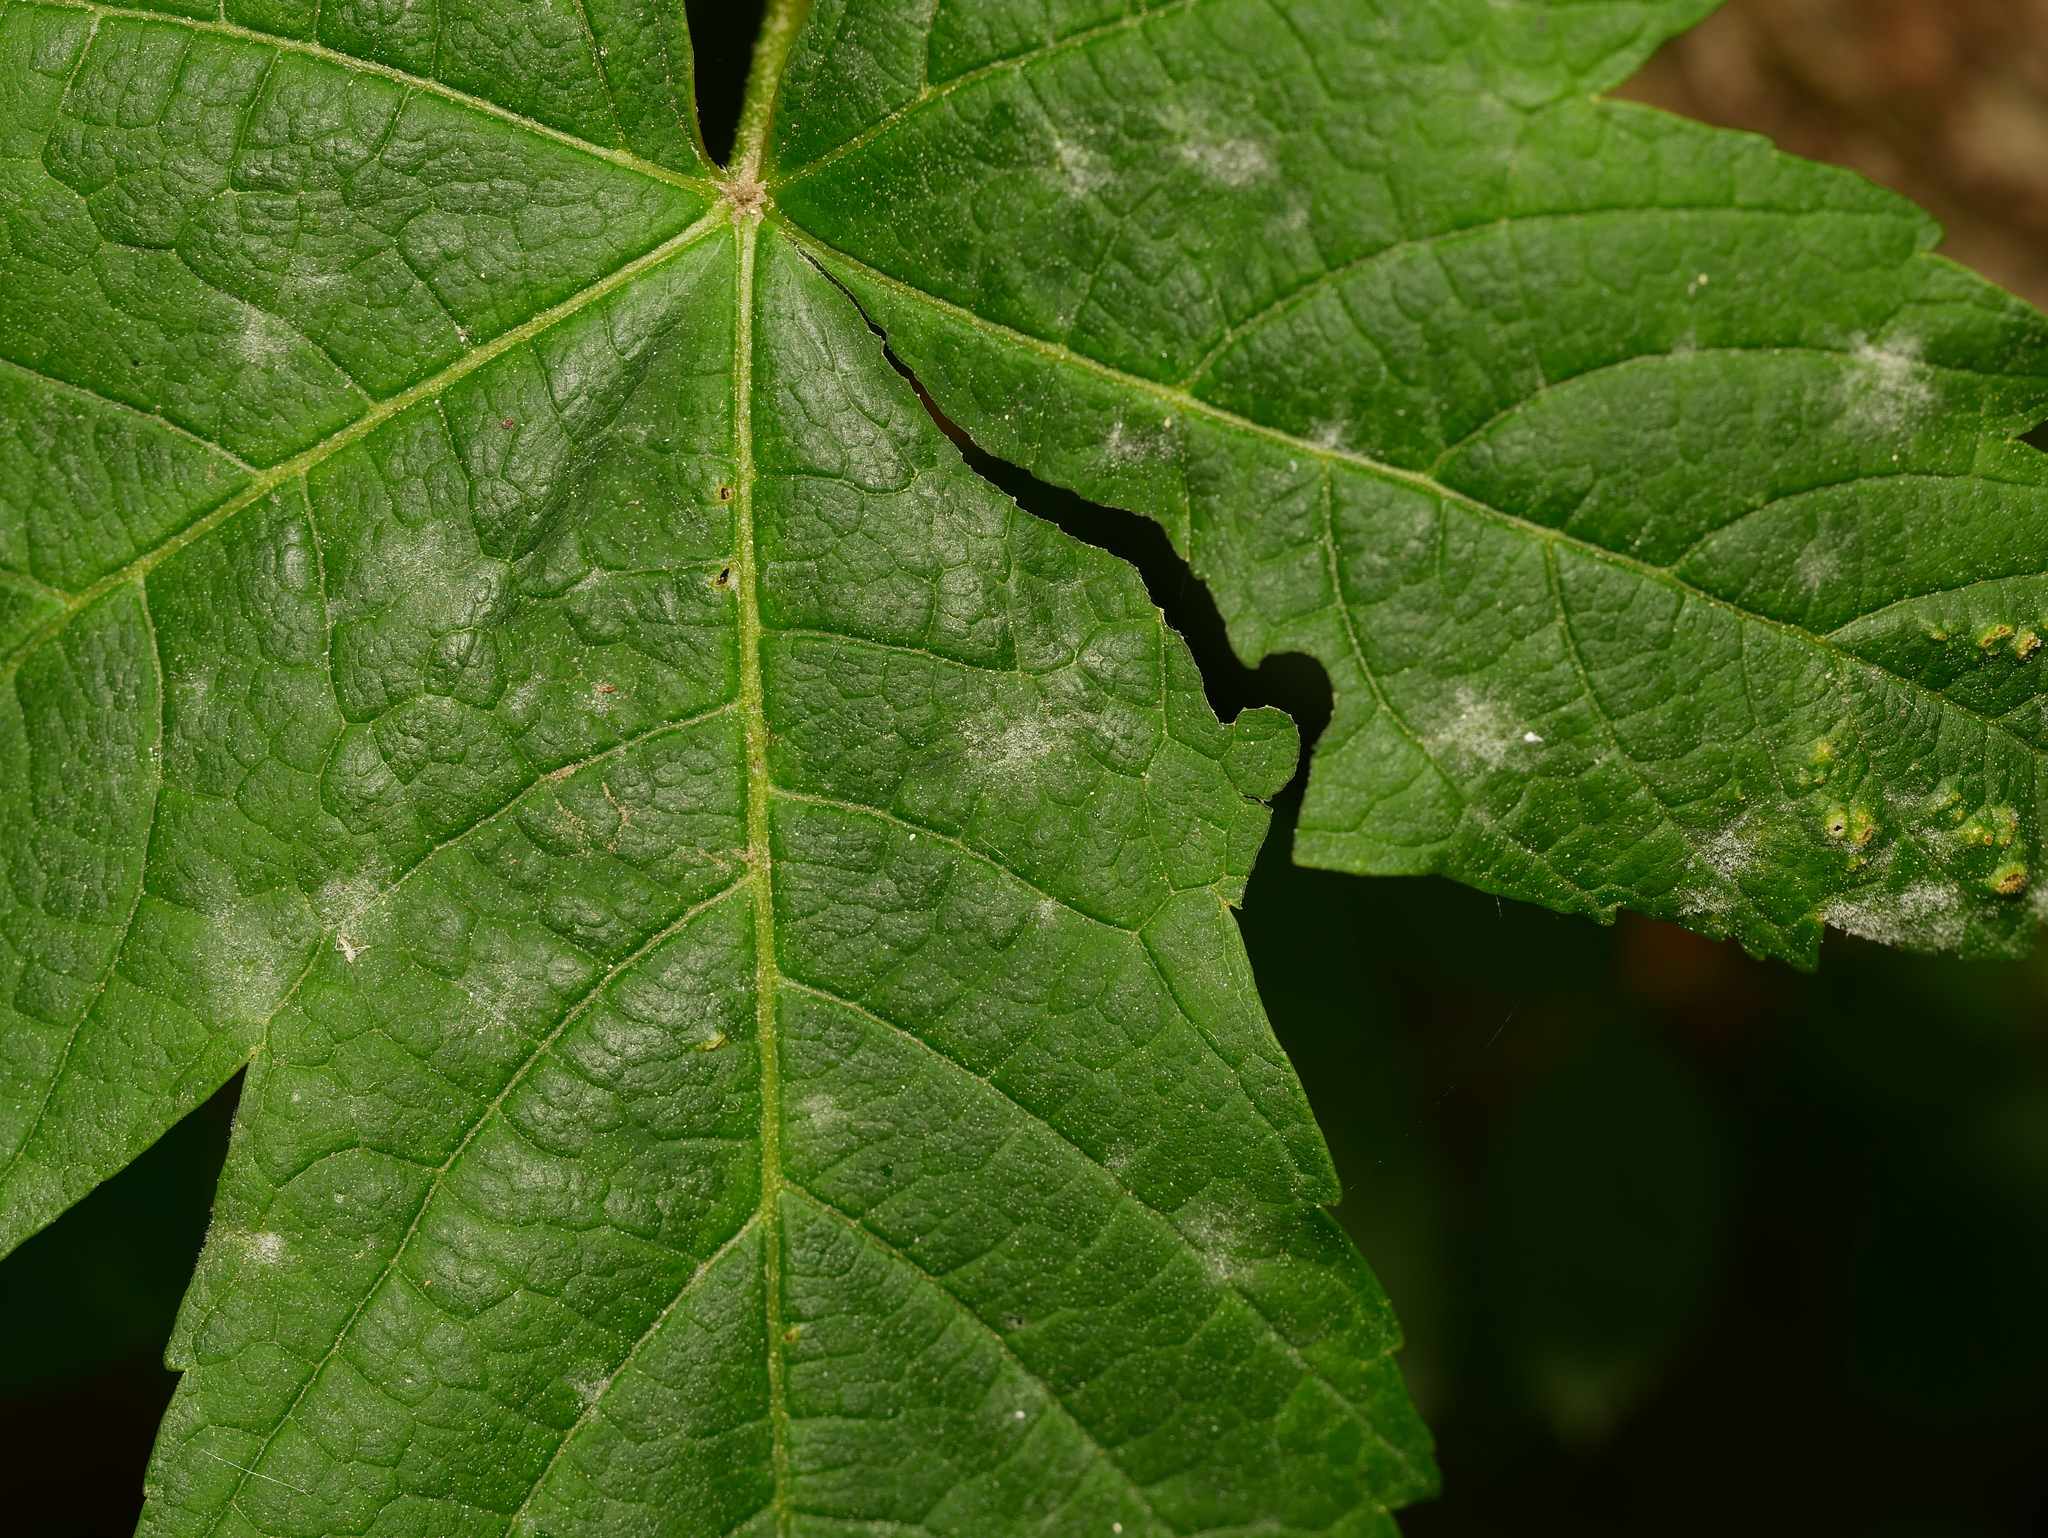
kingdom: Fungi
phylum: Ascomycota
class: Leotiomycetes
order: Helotiales
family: Erysiphaceae
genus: Sawadaea
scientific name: Sawadaea bicornis
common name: Maple mildew
